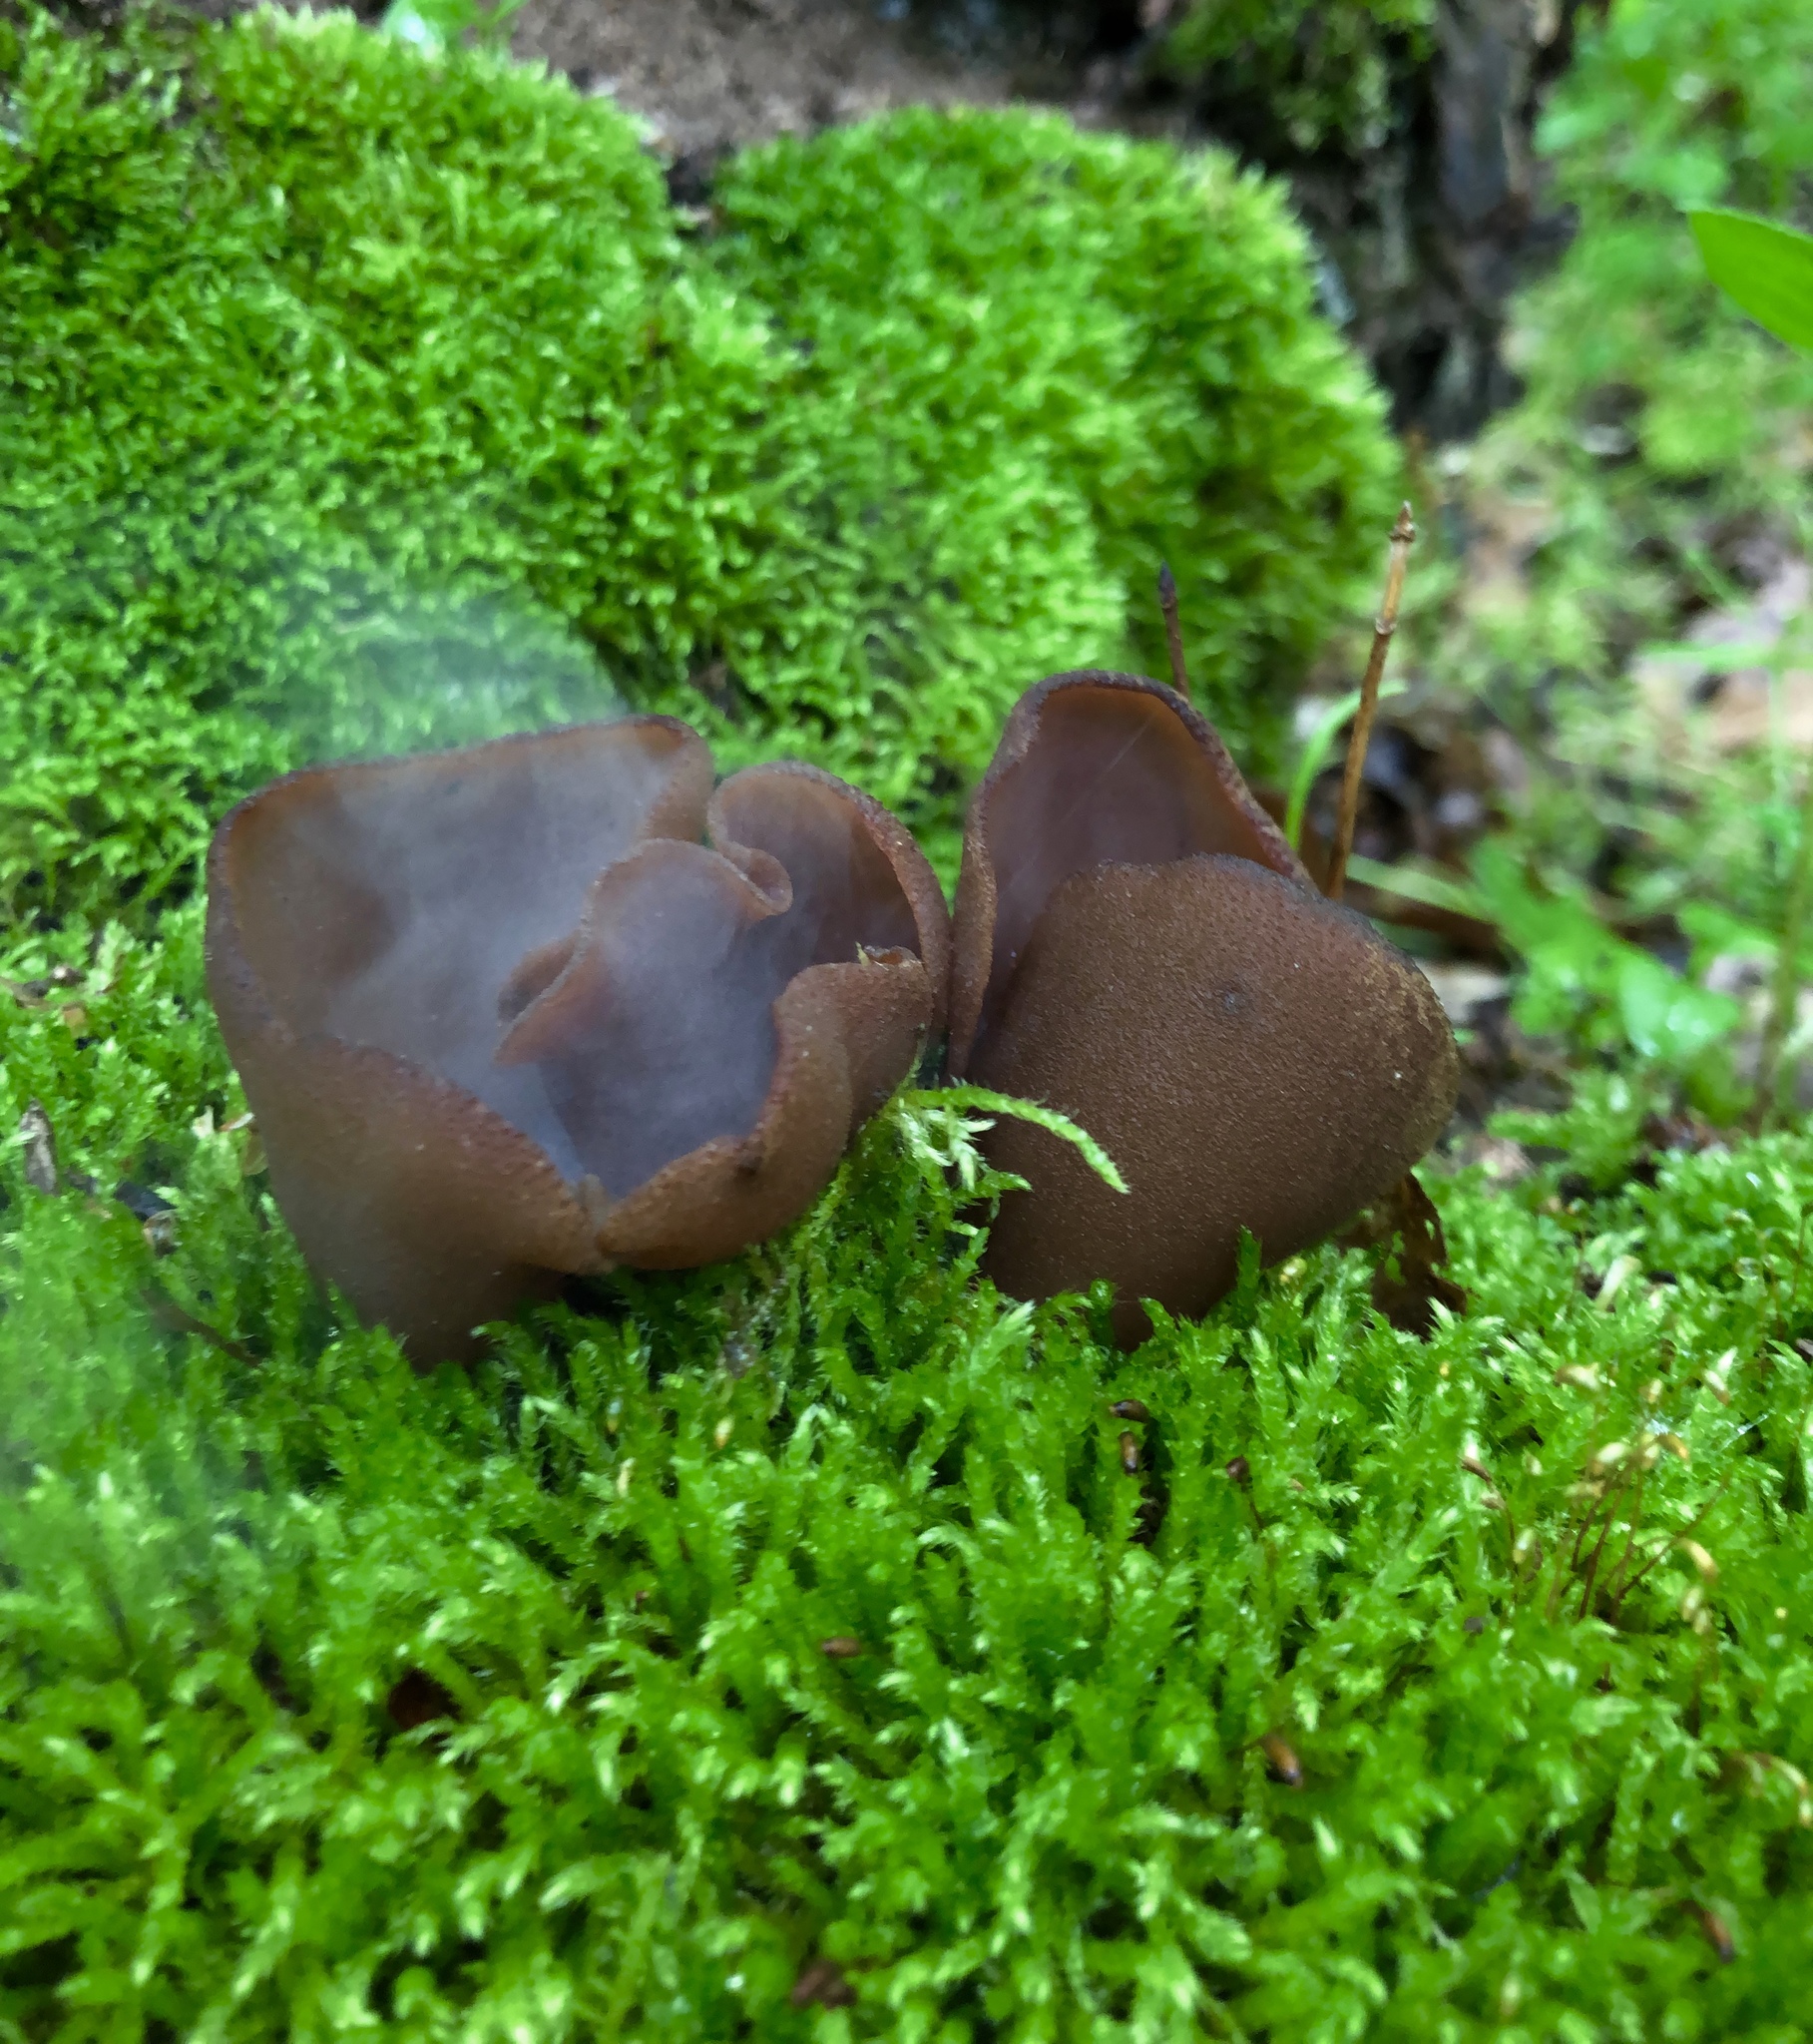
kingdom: Fungi
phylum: Ascomycota
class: Pezizomycetes
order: Pezizales
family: Pezizaceae
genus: Phylloscypha
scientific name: Phylloscypha phyllogena
